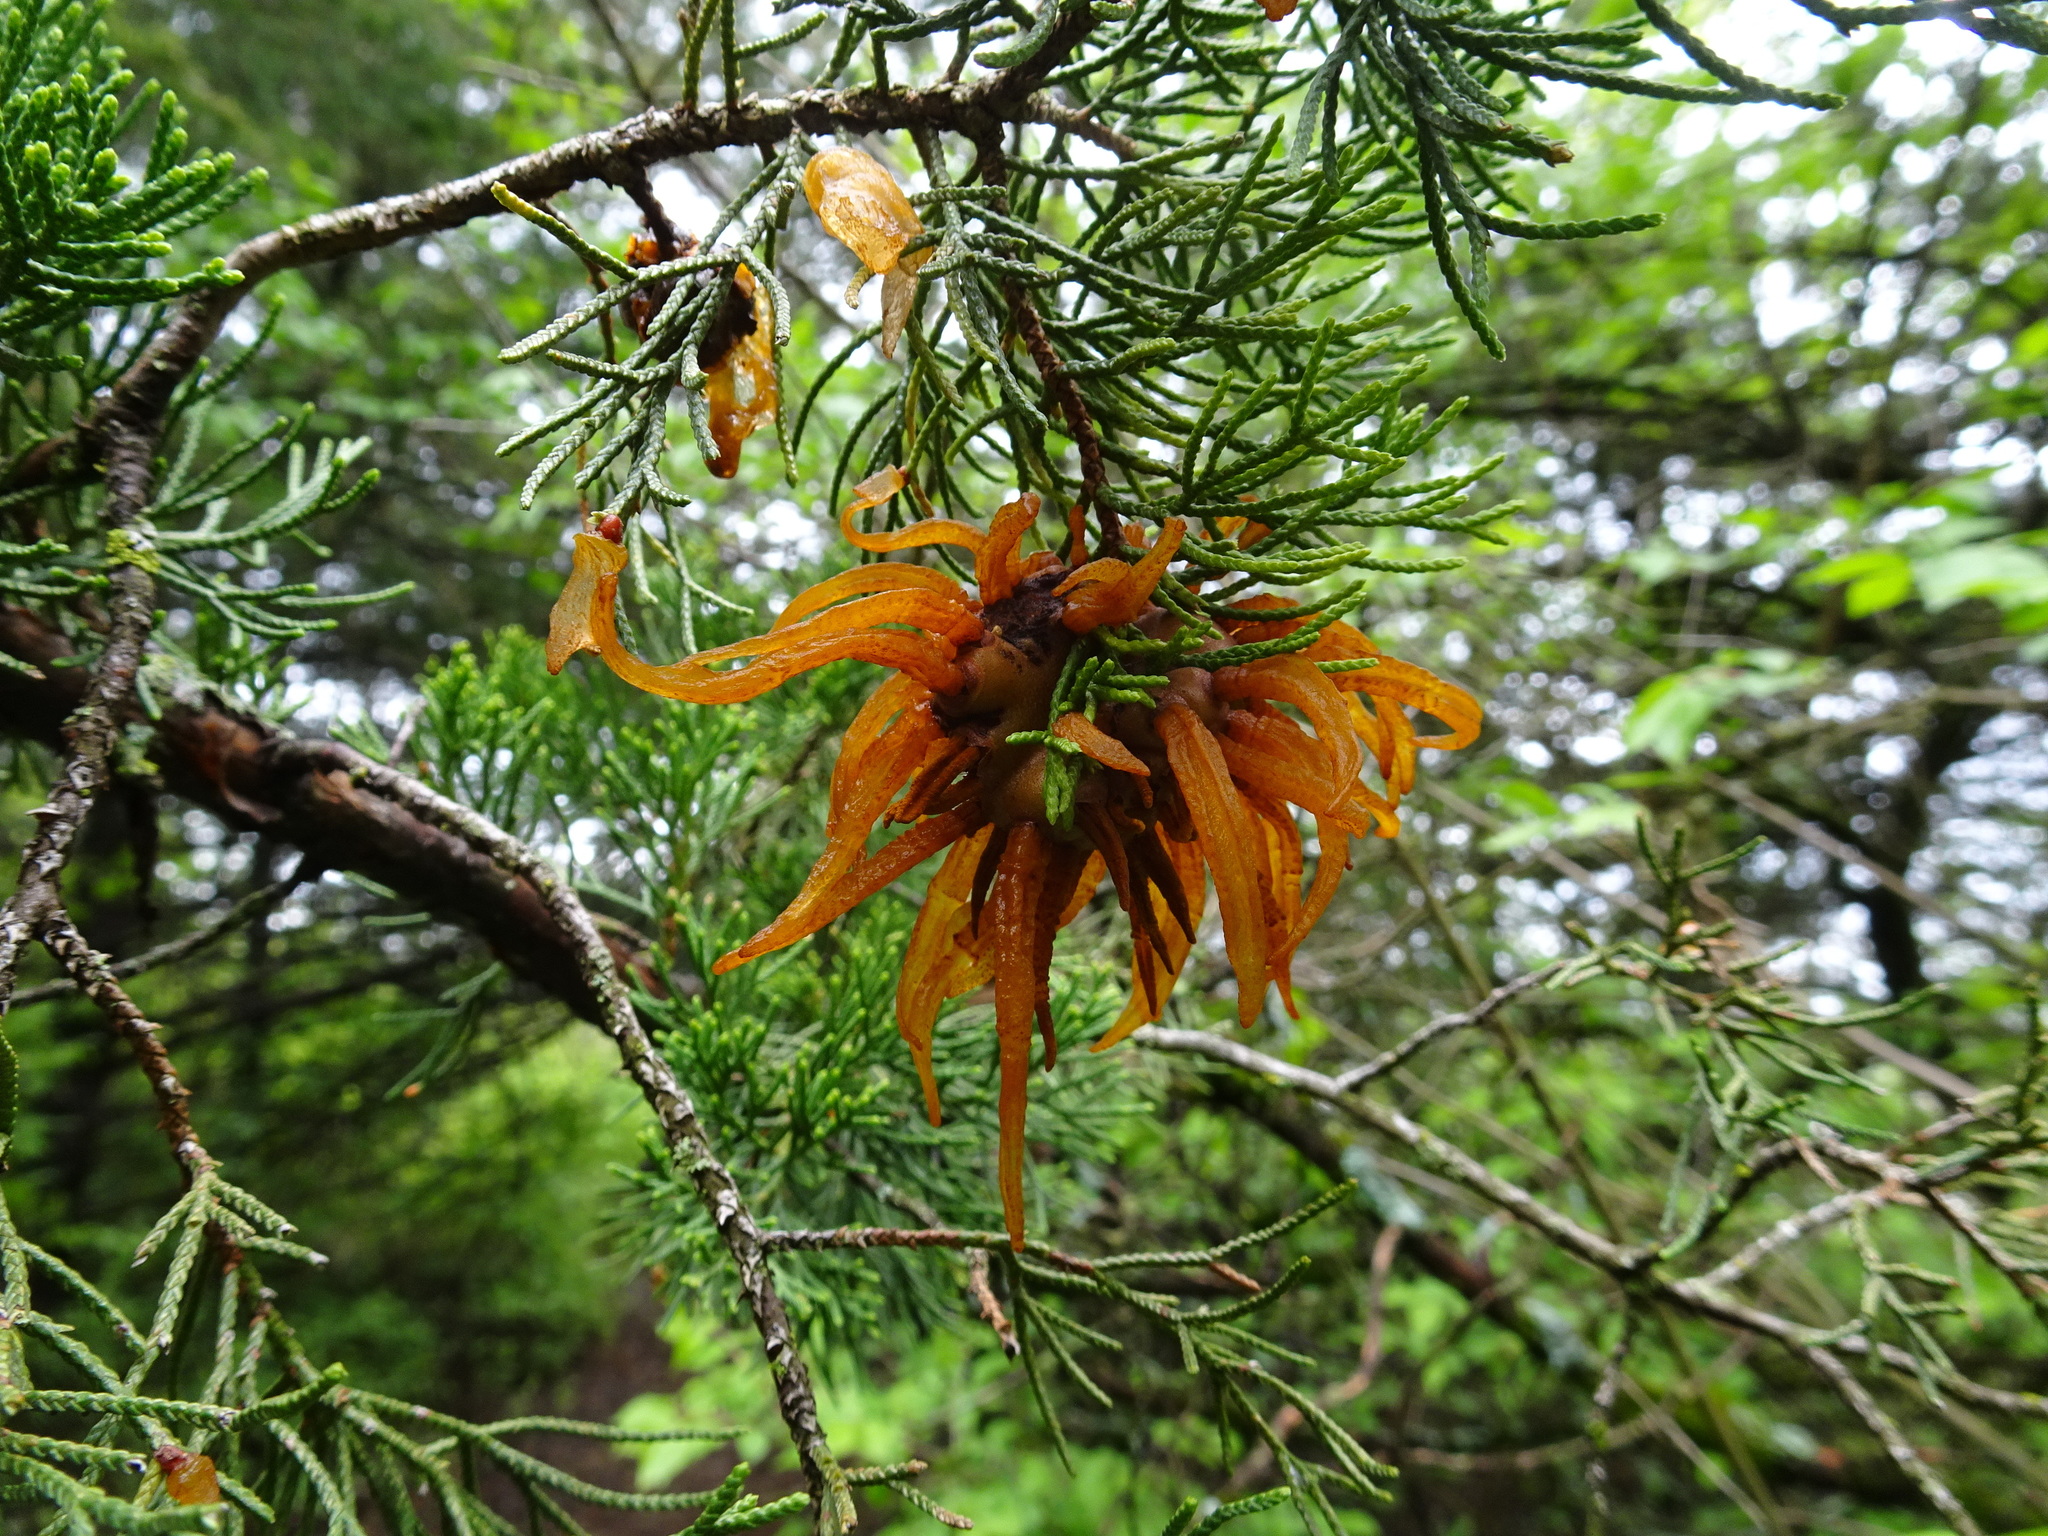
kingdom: Fungi
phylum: Basidiomycota
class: Pucciniomycetes
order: Pucciniales
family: Gymnosporangiaceae
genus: Gymnosporangium
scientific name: Gymnosporangium juniperi-virginianae
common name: Juniper-apple rust
